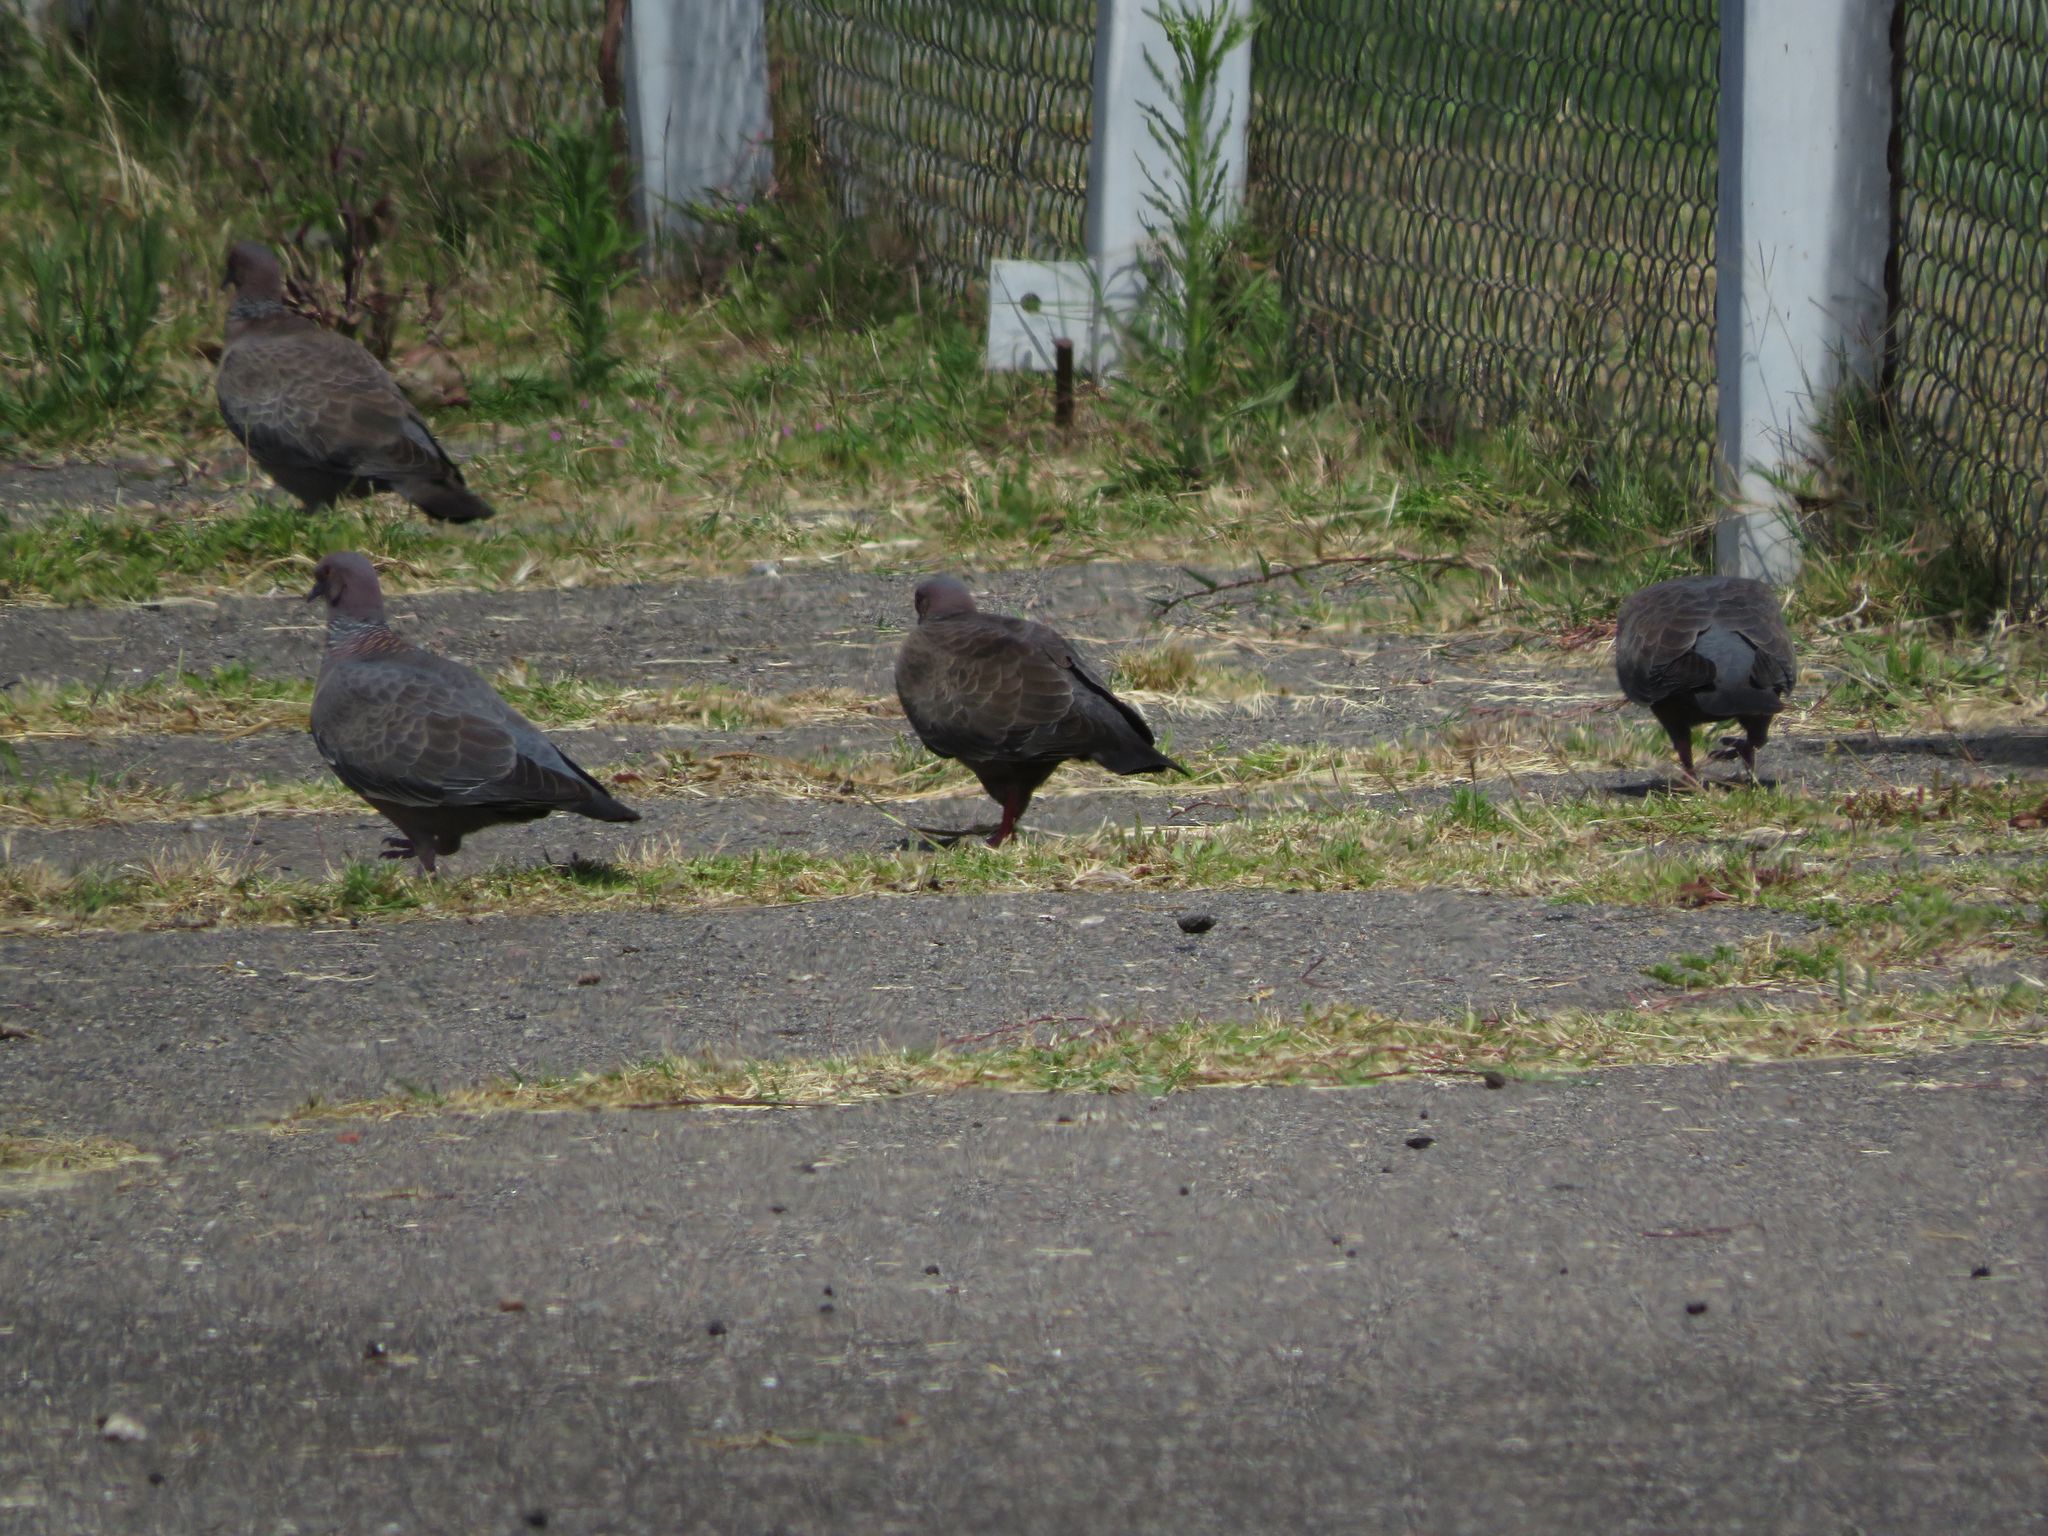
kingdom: Animalia
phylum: Chordata
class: Aves
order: Columbiformes
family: Columbidae
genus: Patagioenas
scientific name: Patagioenas picazuro
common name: Picazuro pigeon
